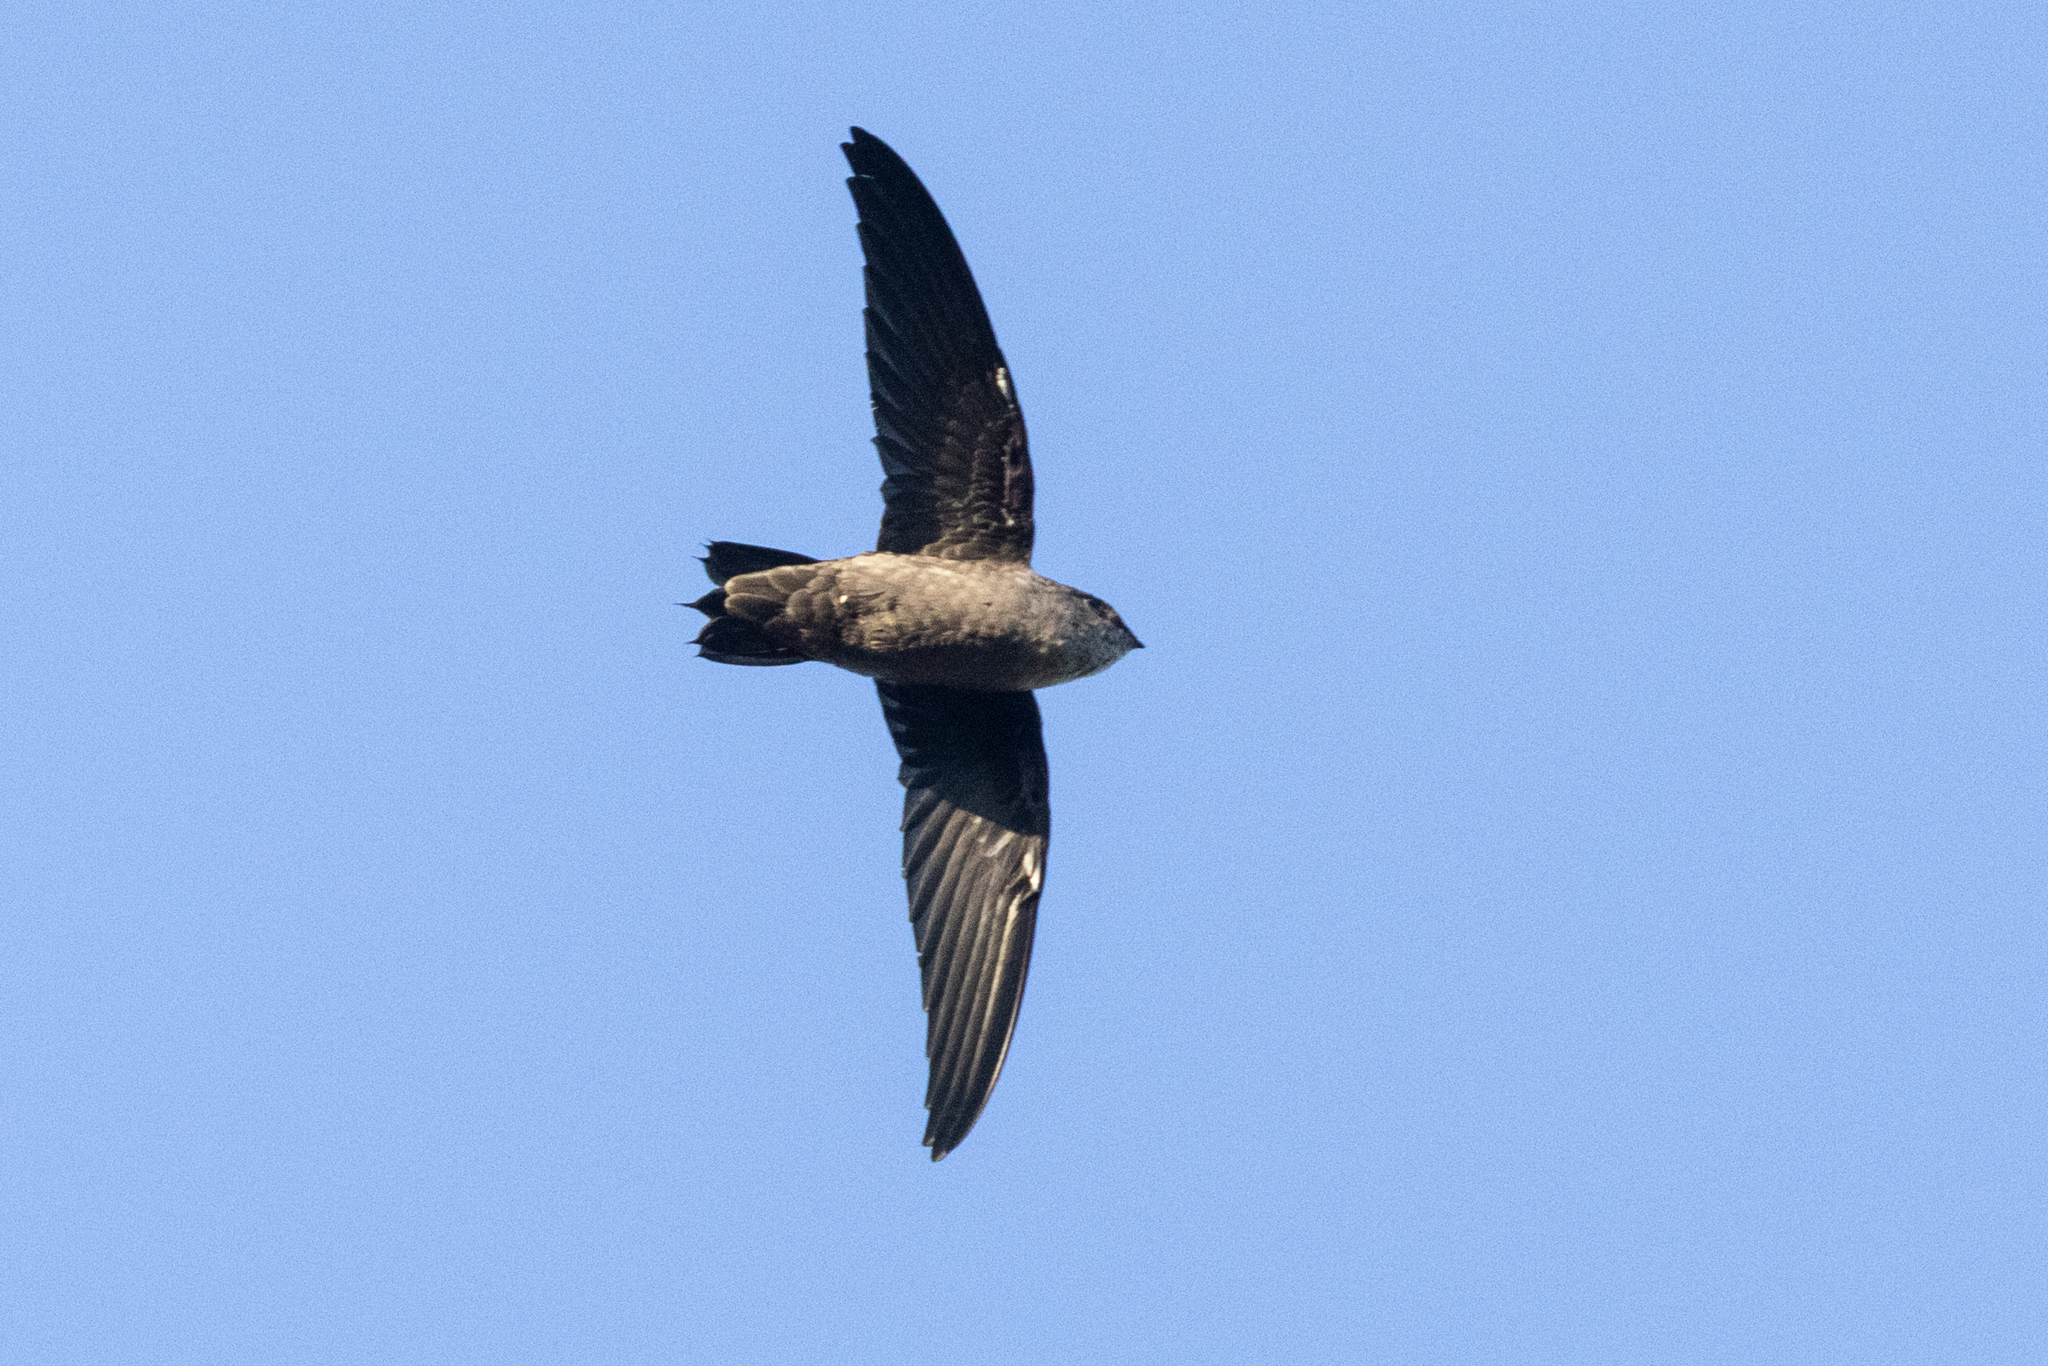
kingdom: Animalia
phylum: Chordata
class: Aves
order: Apodiformes
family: Apodidae
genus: Chaetura
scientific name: Chaetura vauxi
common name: Vaux's swift
